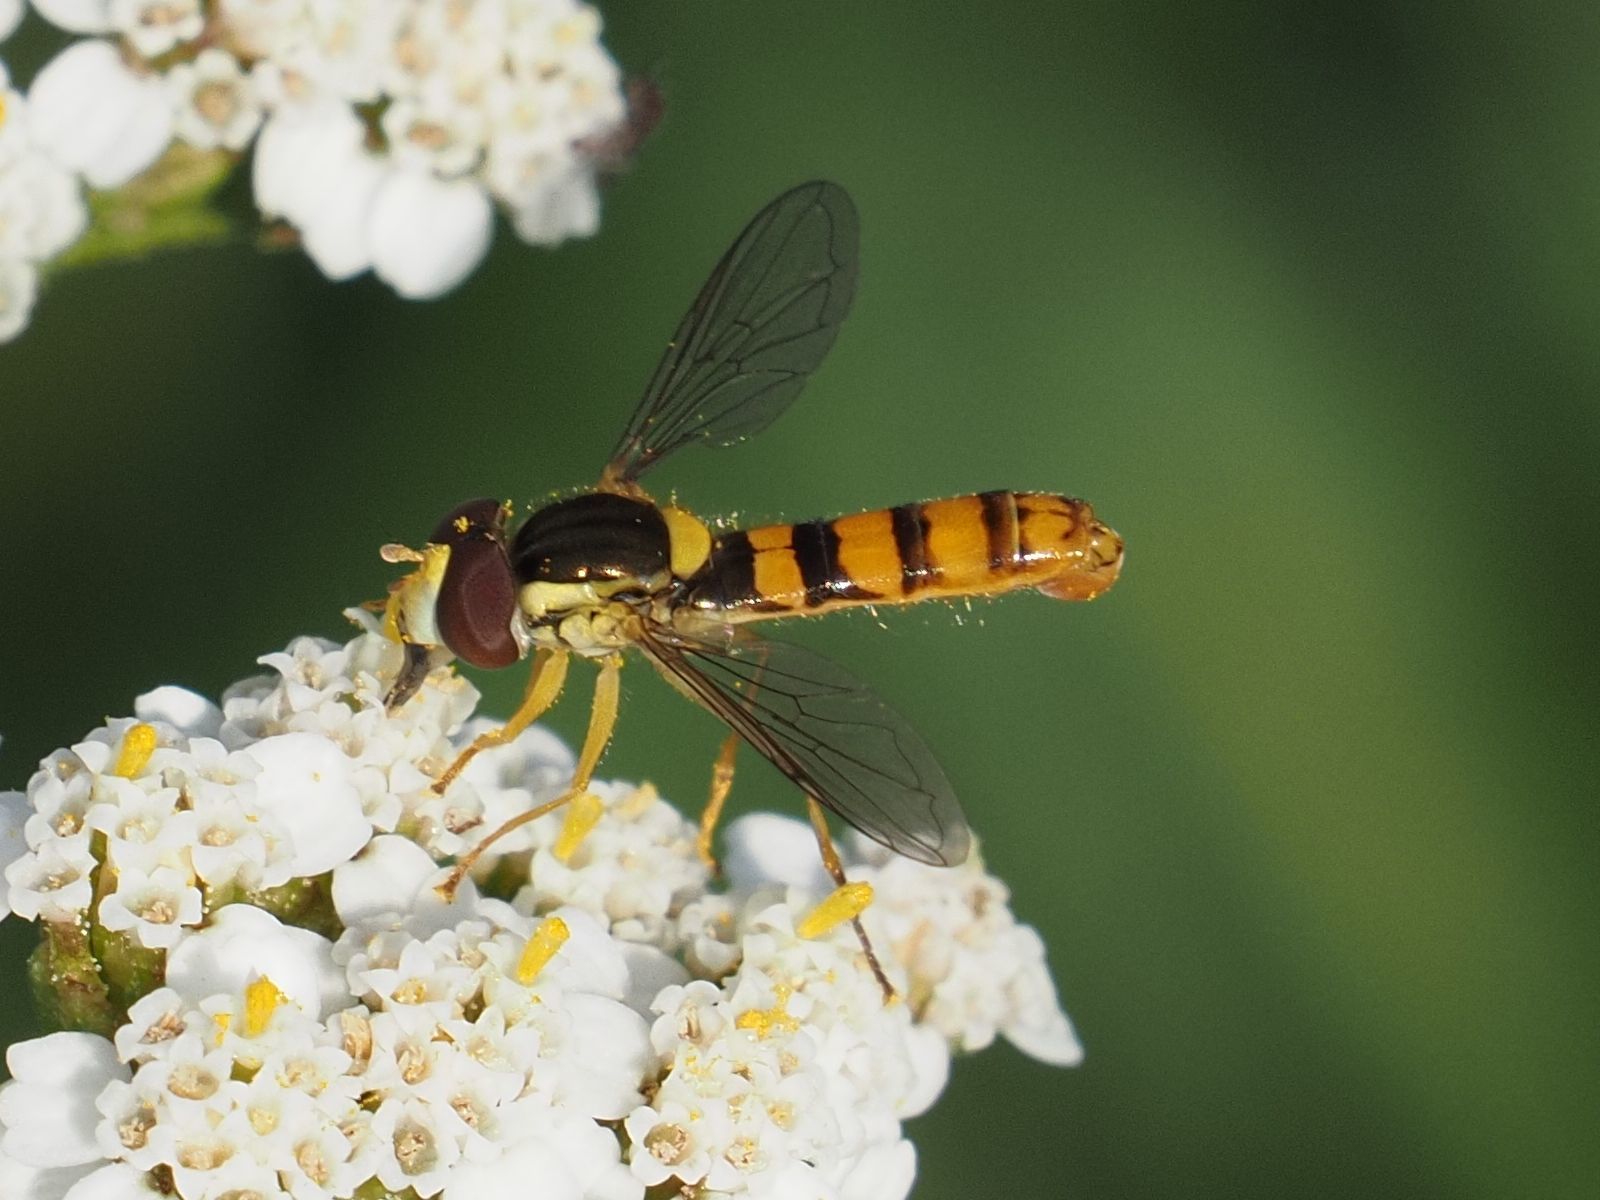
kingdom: Animalia
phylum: Arthropoda
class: Insecta
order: Diptera
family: Syrphidae
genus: Sphaerophoria
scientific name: Sphaerophoria
